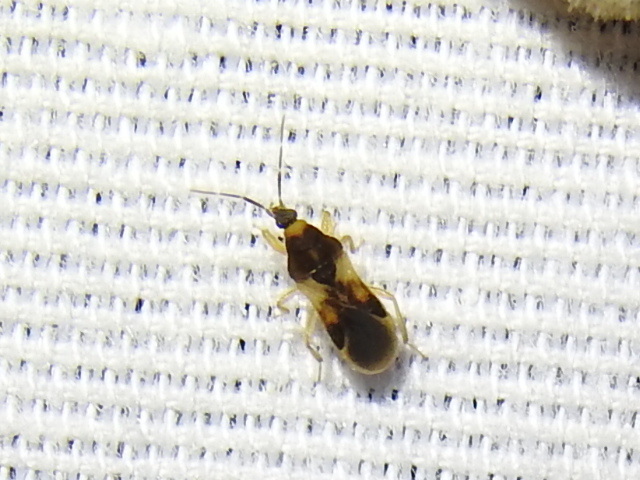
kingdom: Animalia
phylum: Arthropoda
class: Insecta
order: Hemiptera
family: Nabidae
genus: Phorticus
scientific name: Phorticus collaris
